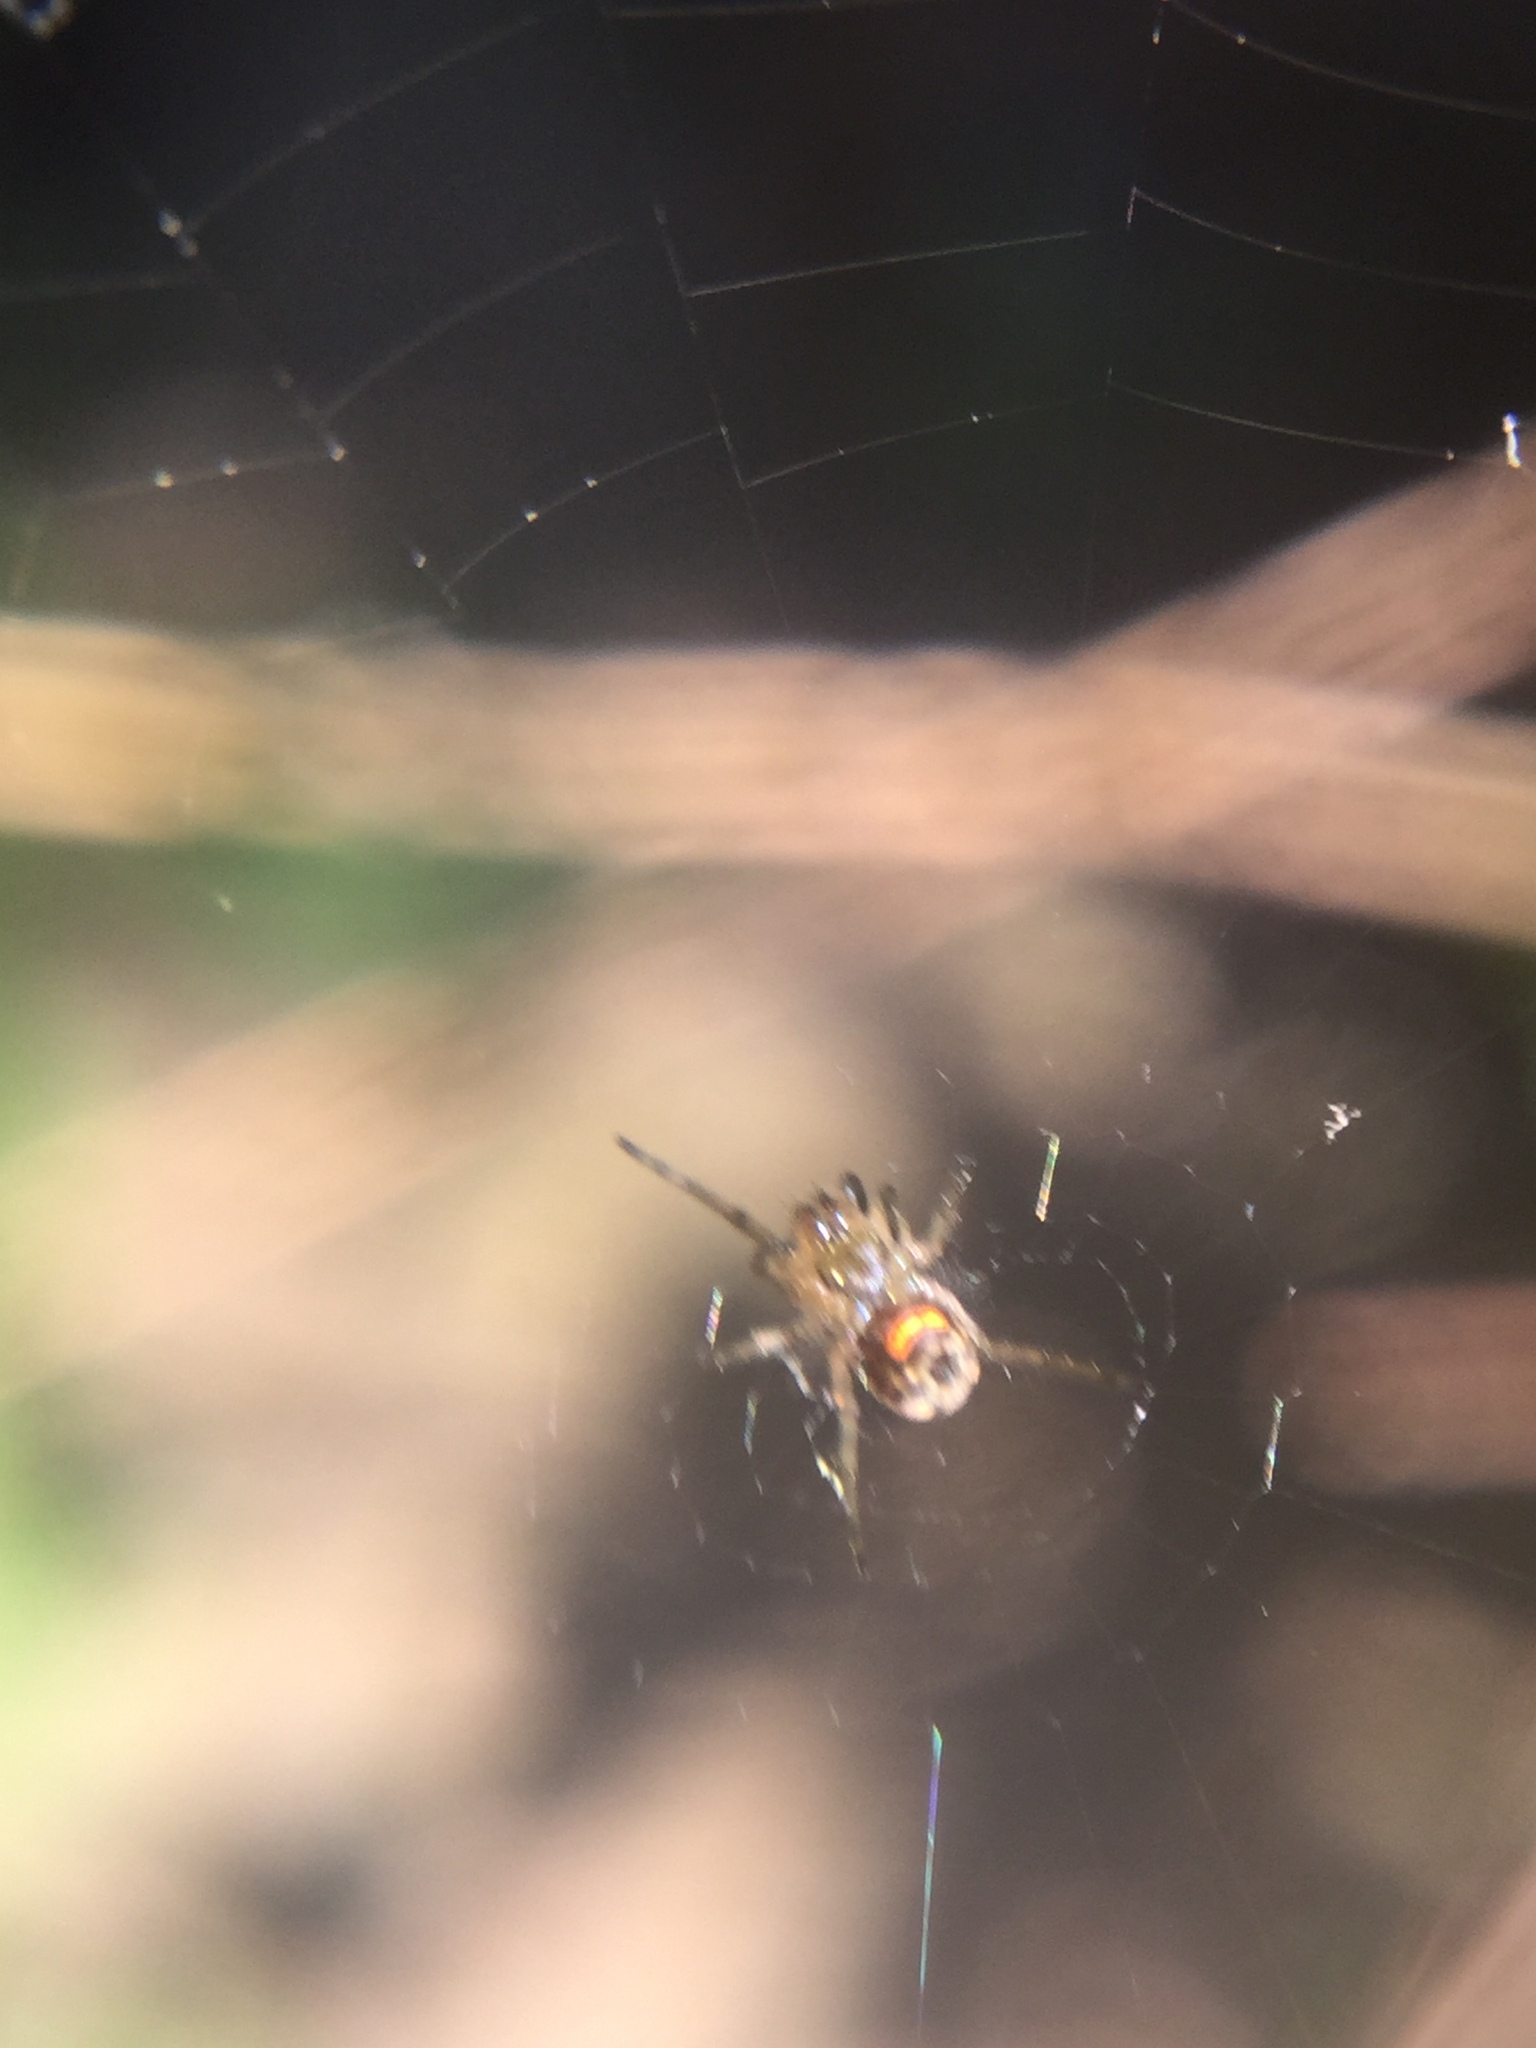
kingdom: Animalia
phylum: Arthropoda
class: Arachnida
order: Araneae
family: Tetragnathidae
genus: Leucauge
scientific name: Leucauge venusta
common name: Longjawed orb weavers
